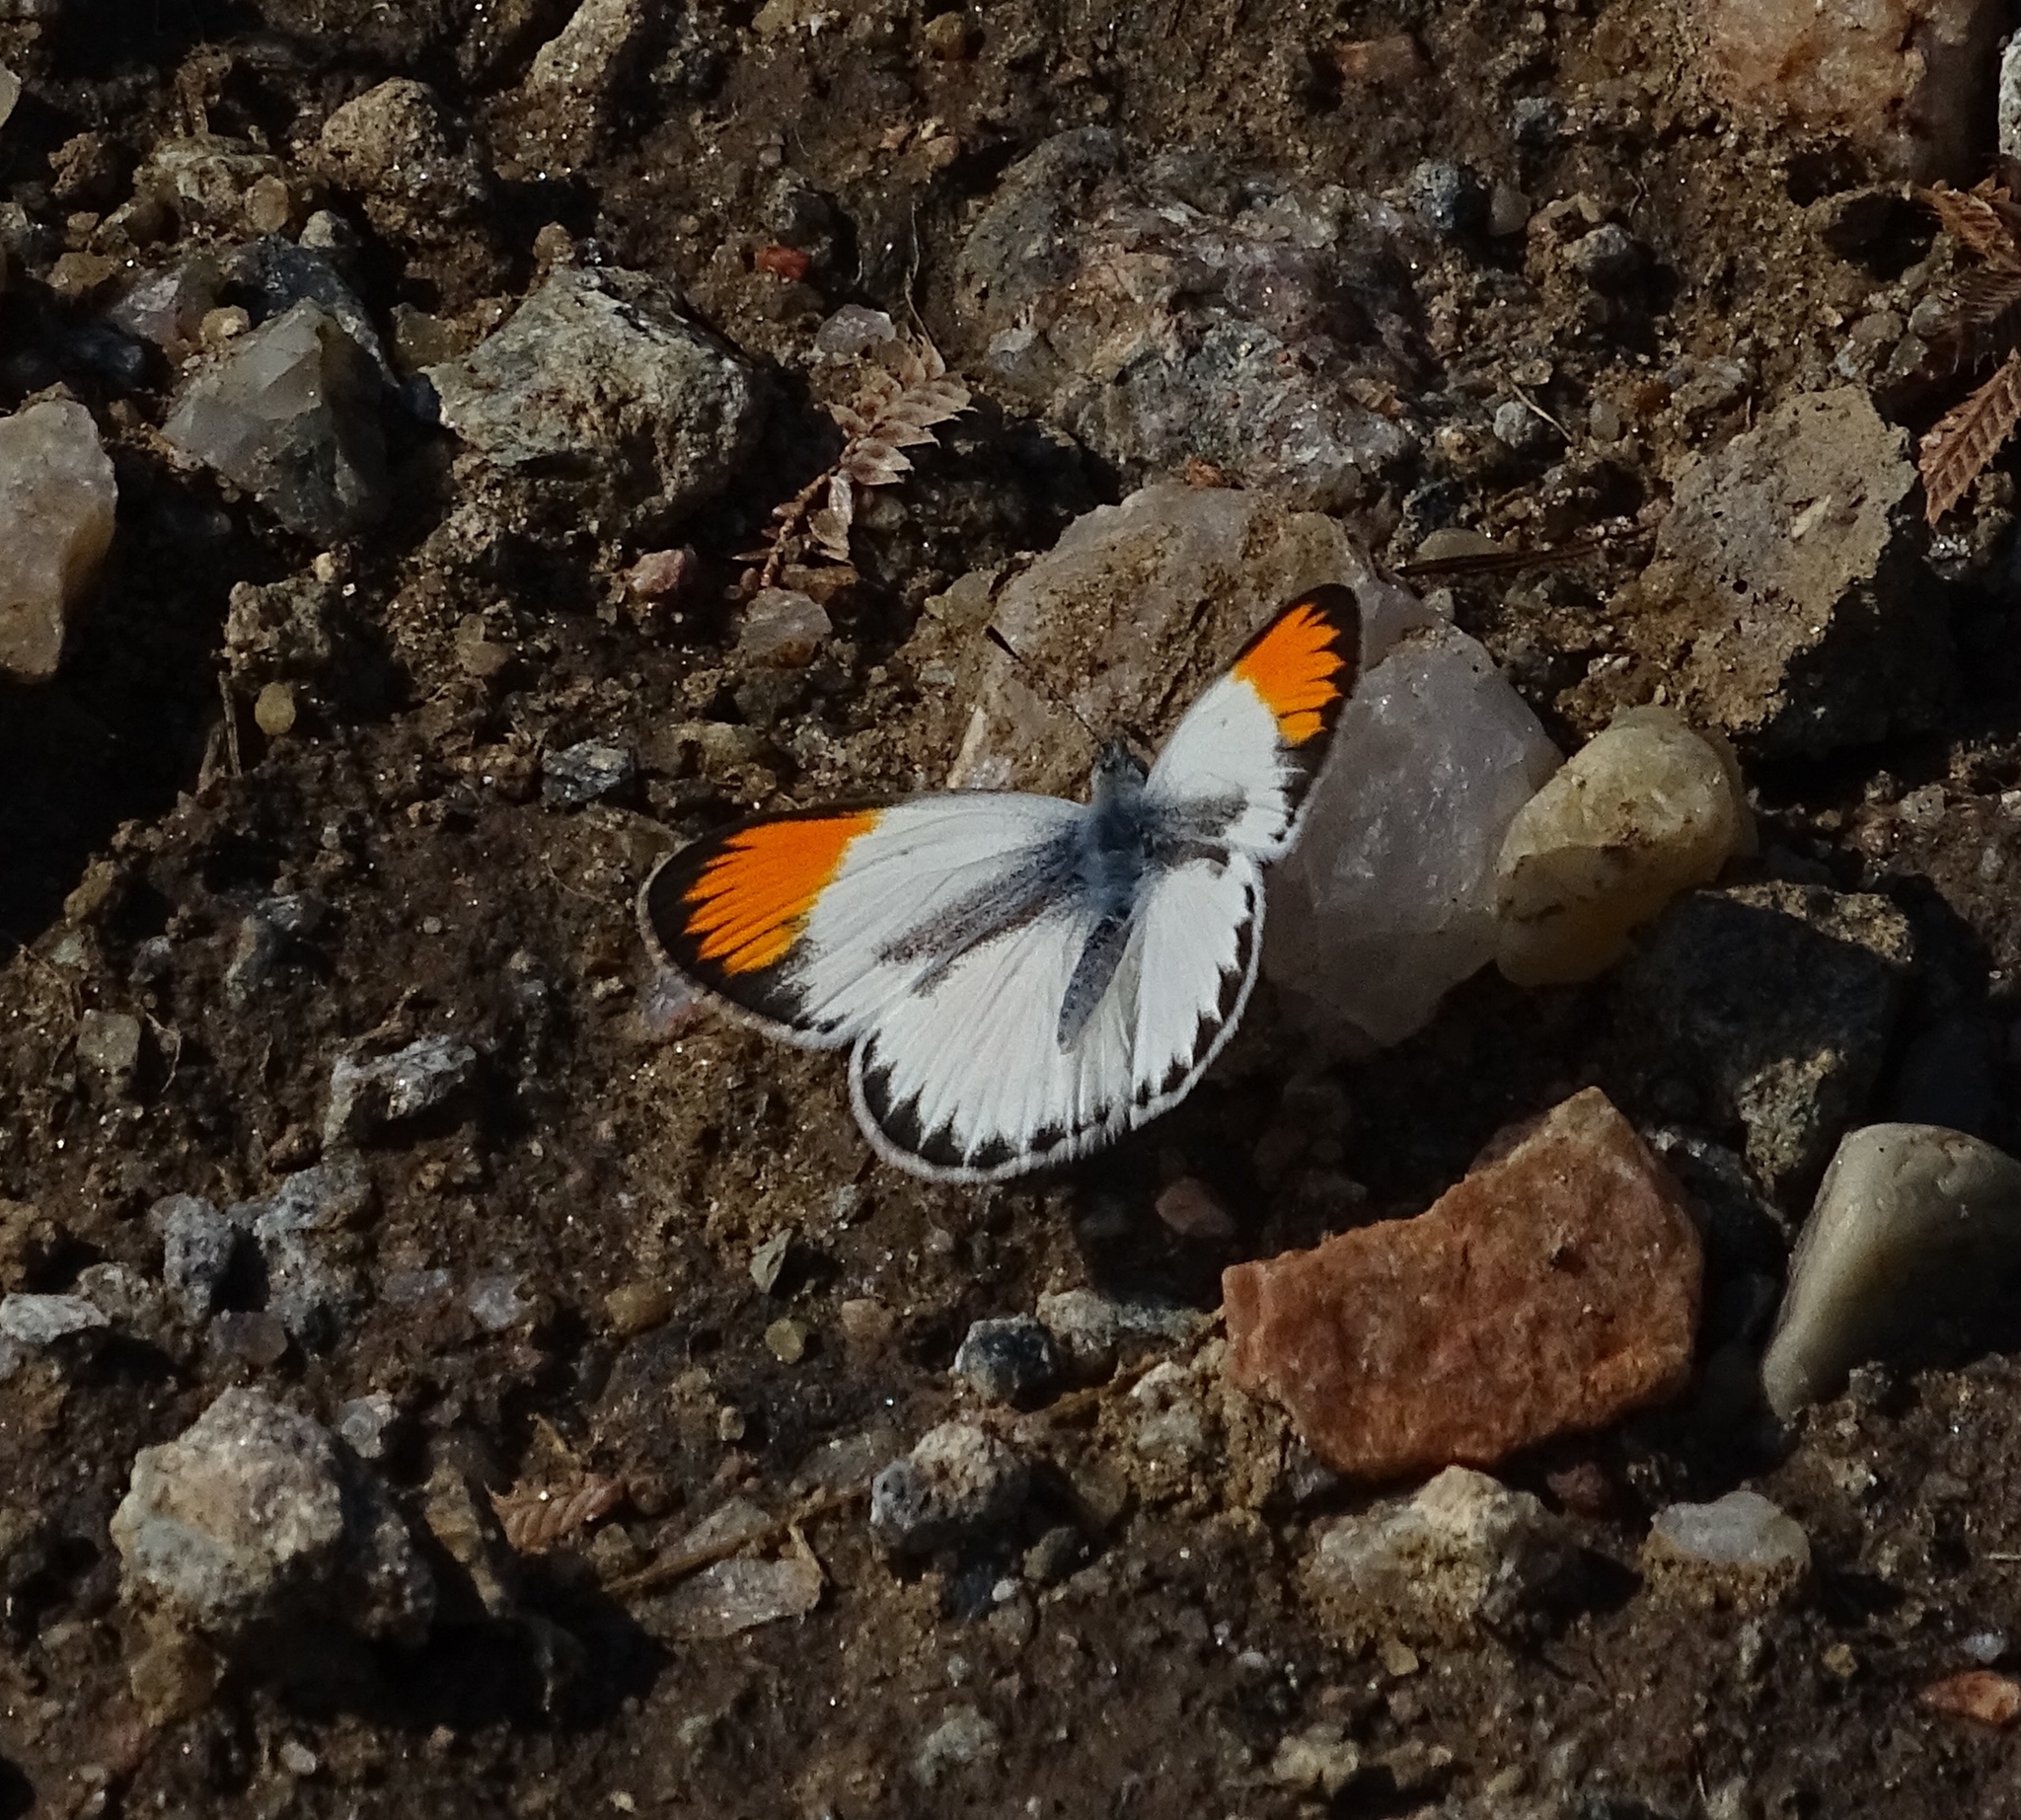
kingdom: Animalia
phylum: Arthropoda
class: Insecta
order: Lepidoptera
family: Pieridae
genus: Colotis
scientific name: Colotis evagore
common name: Desert orange-tip
